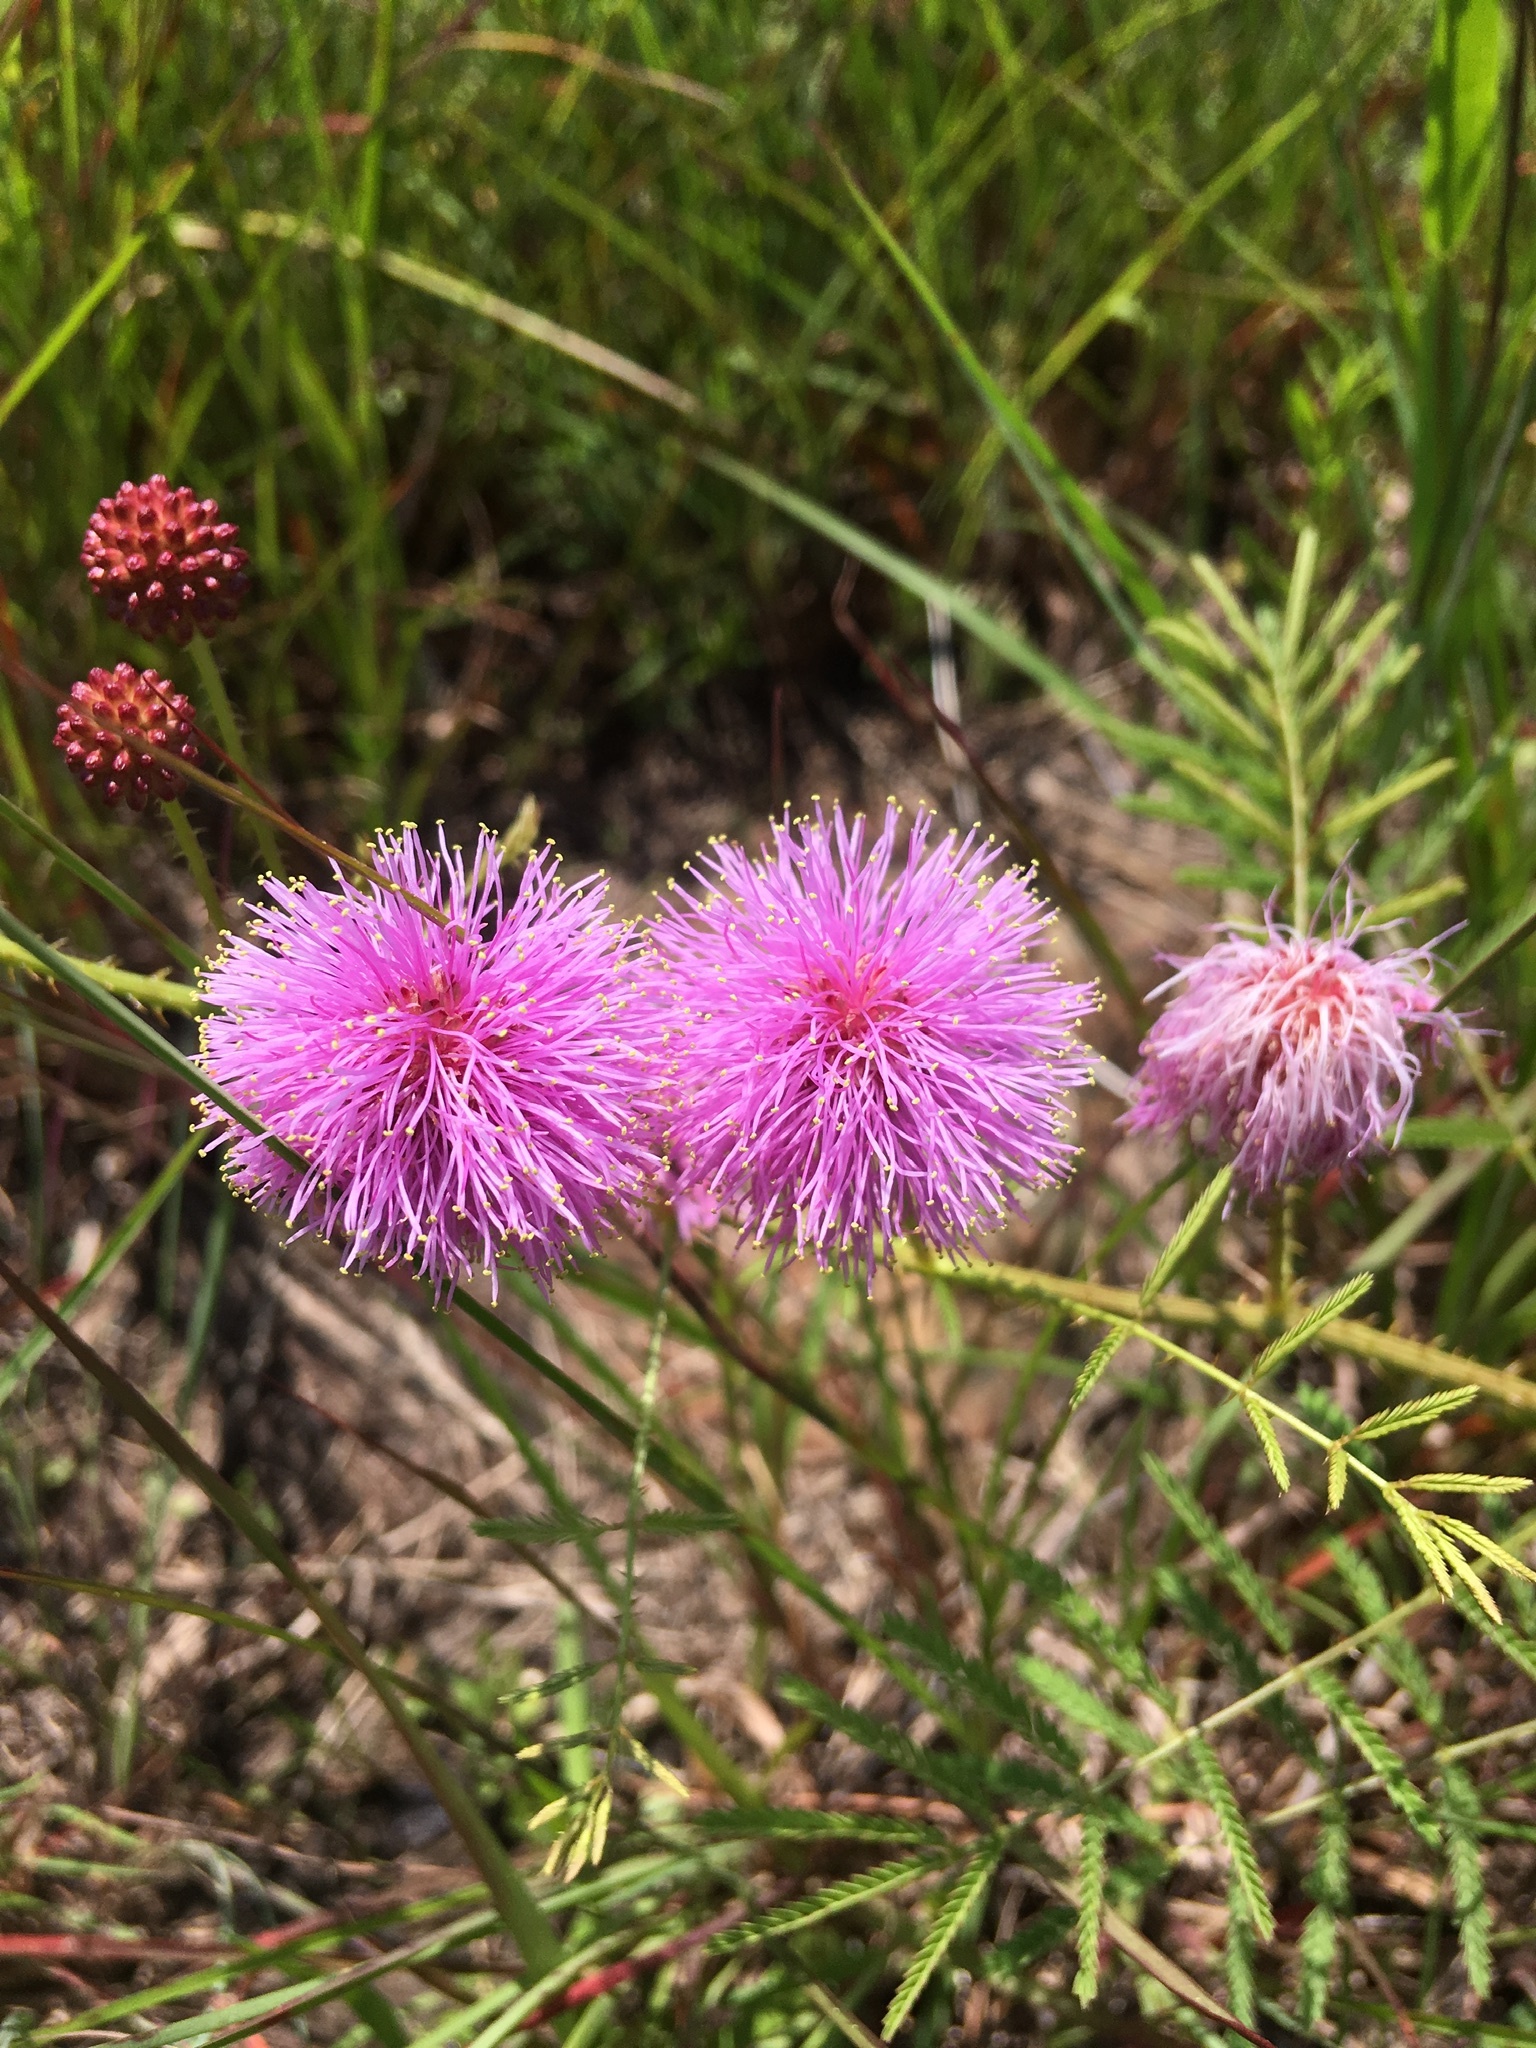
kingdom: Plantae
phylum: Tracheophyta
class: Magnoliopsida
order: Fabales
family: Fabaceae
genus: Mimosa
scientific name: Mimosa quadrivalvis
